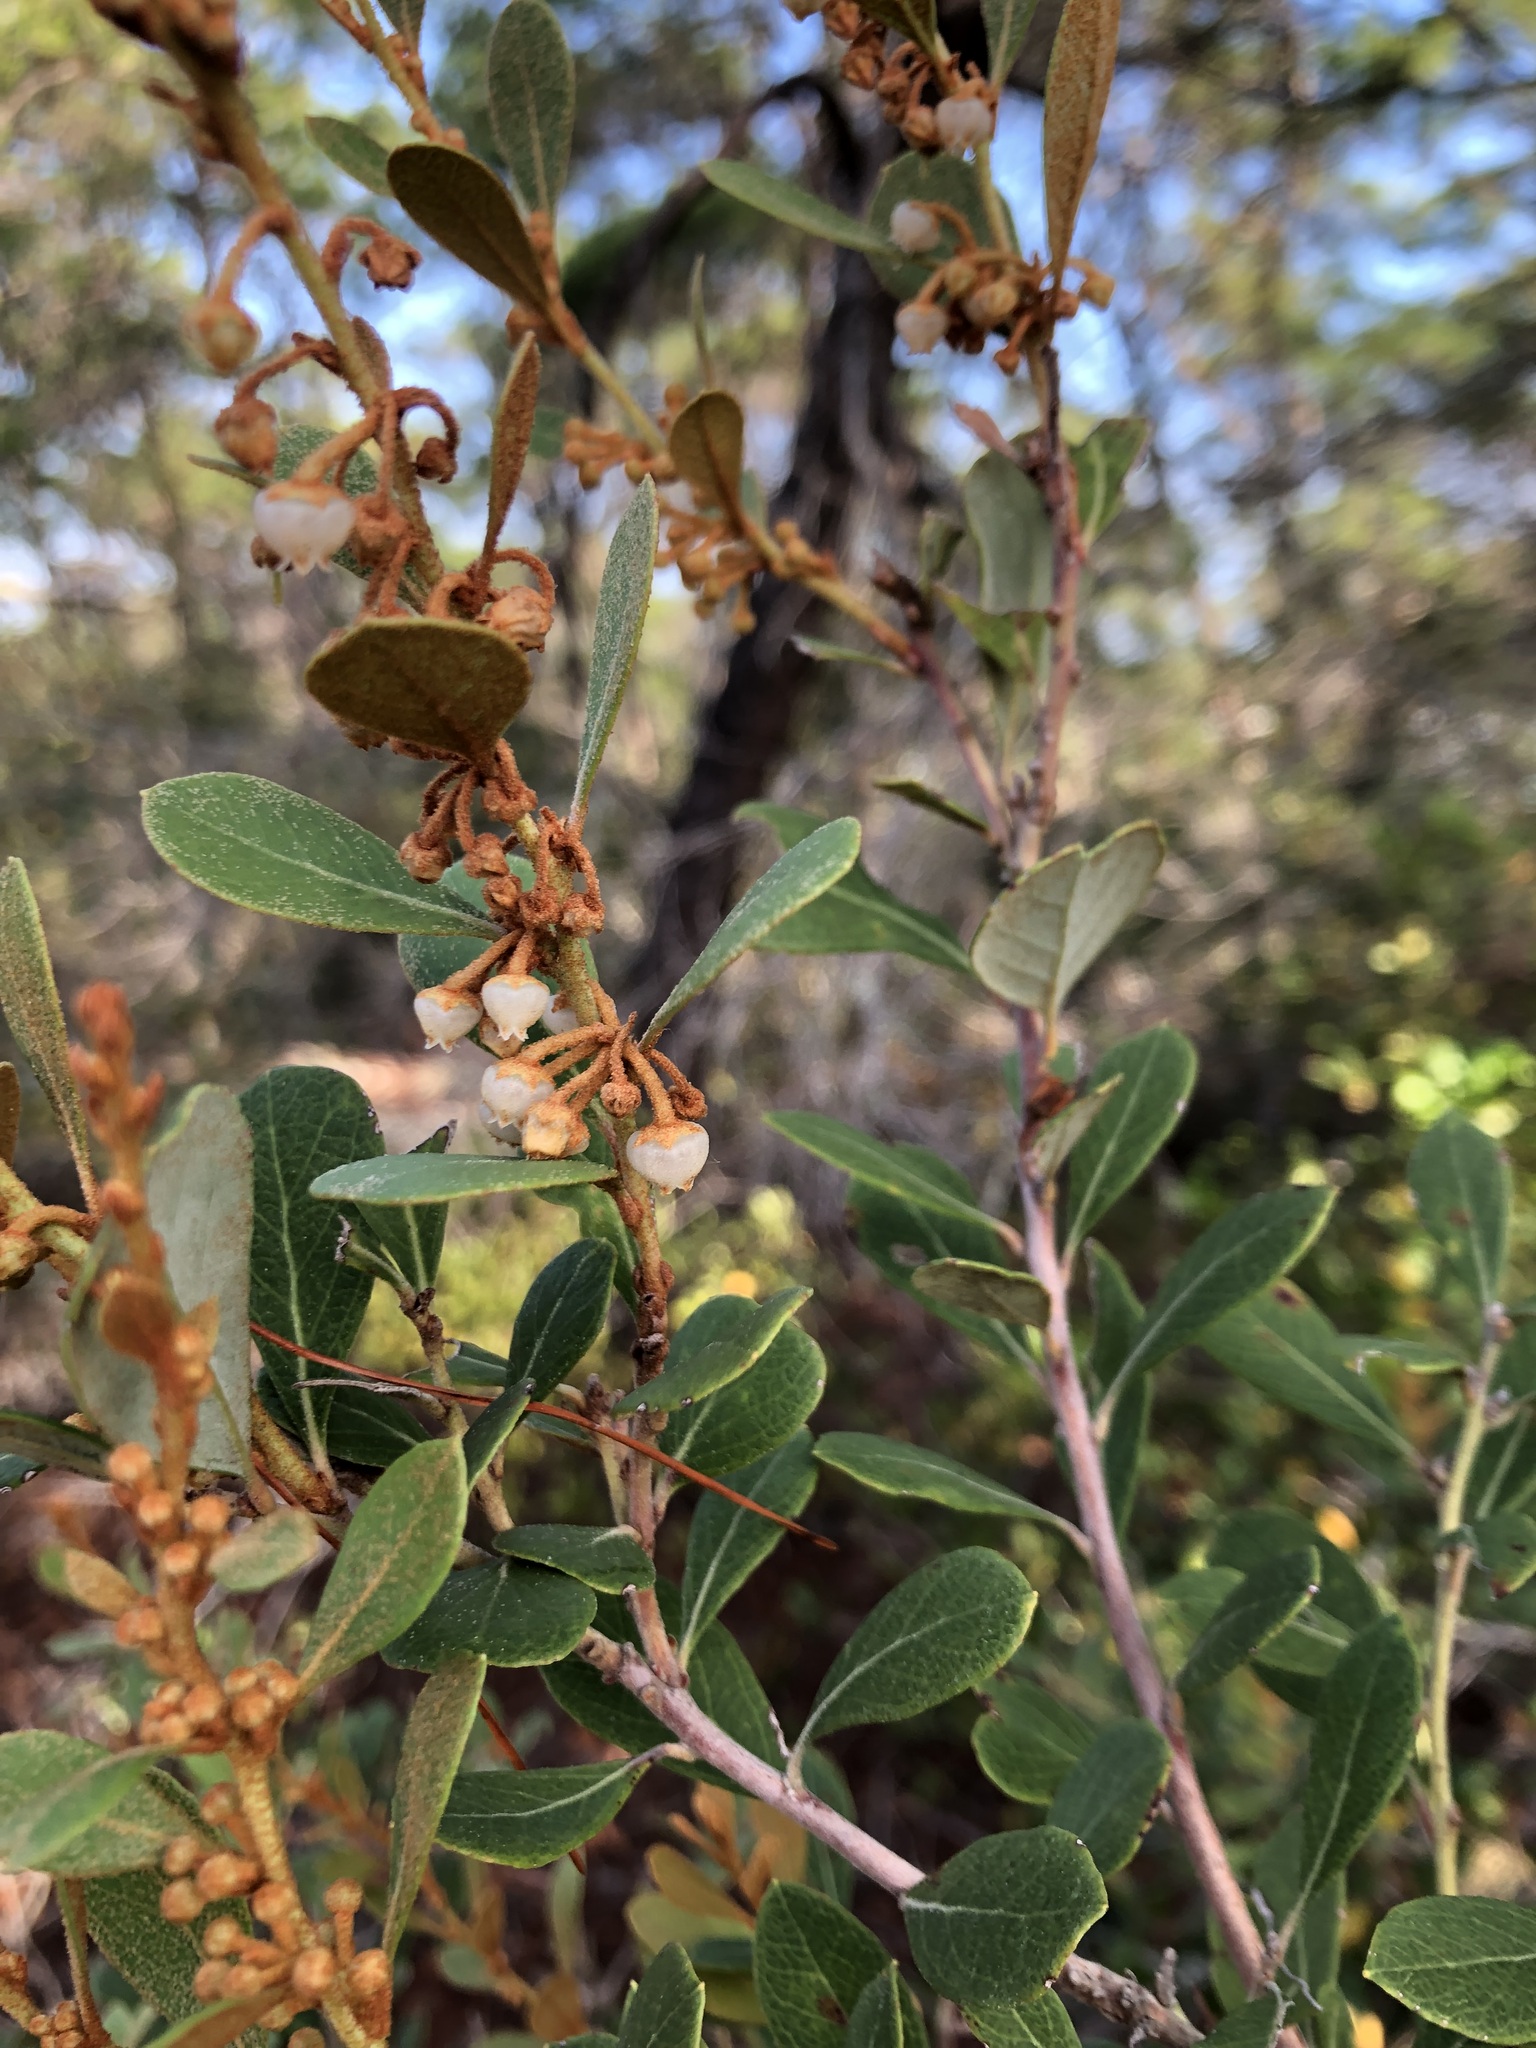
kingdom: Plantae
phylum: Tracheophyta
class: Magnoliopsida
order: Ericales
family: Ericaceae
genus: Lyonia
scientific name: Lyonia fruticosa
